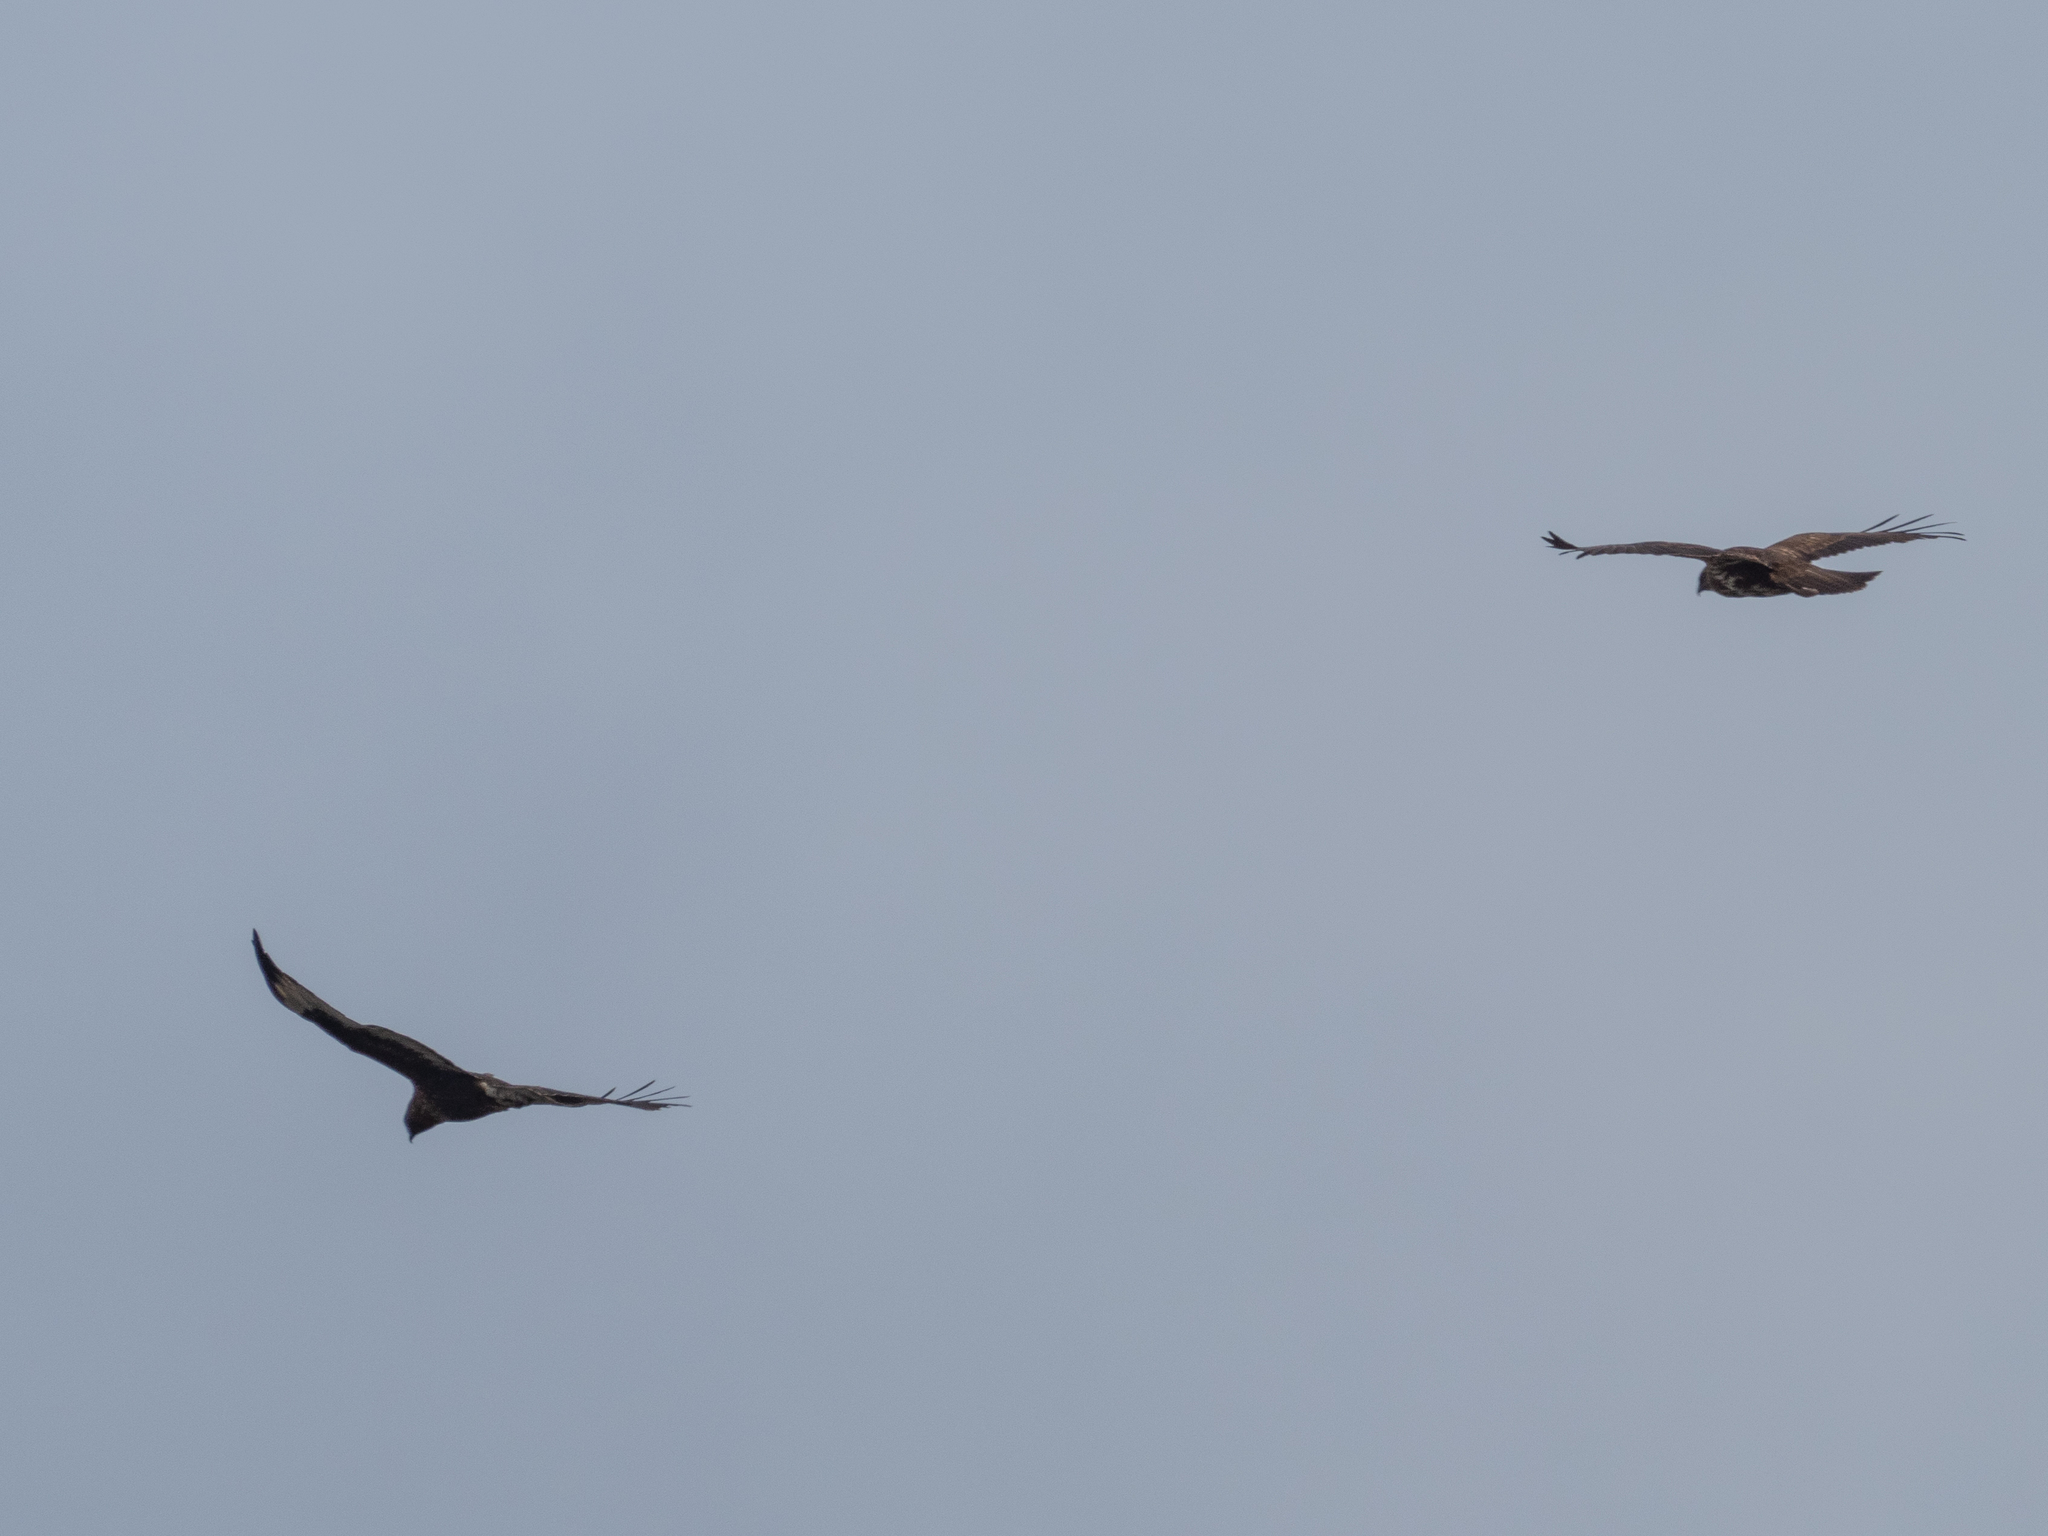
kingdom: Animalia
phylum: Chordata
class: Aves
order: Accipitriformes
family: Accipitridae
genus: Buteo
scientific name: Buteo buteo
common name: Common buzzard
